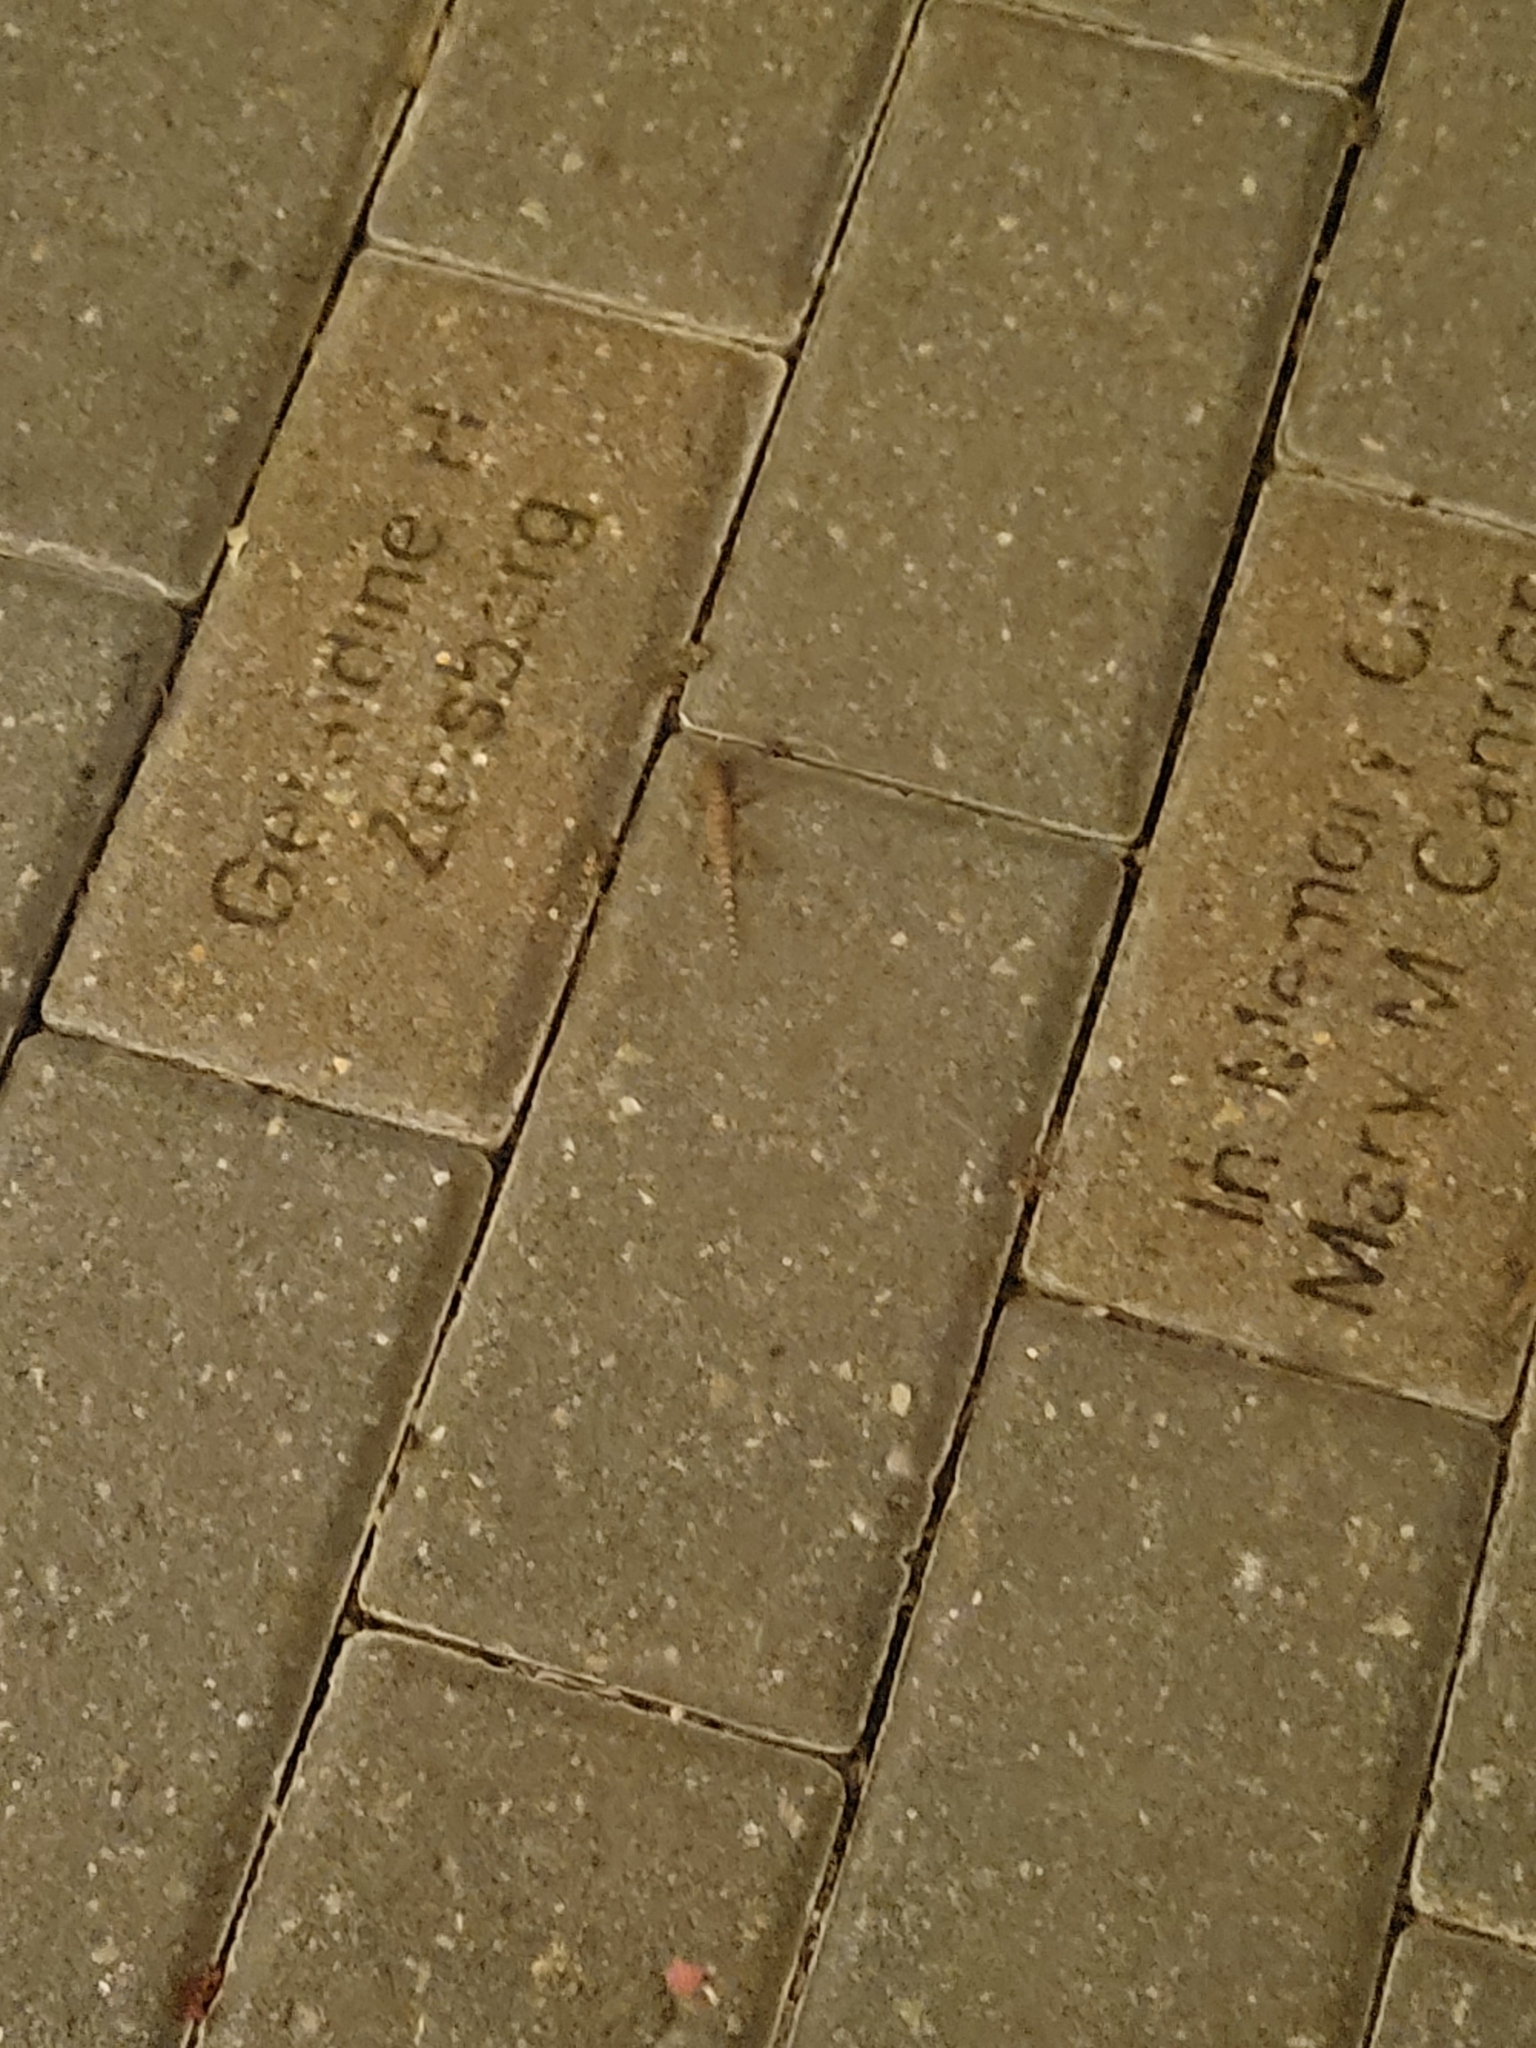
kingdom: Animalia
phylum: Chordata
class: Squamata
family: Gekkonidae
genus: Hemidactylus
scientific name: Hemidactylus turcicus
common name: Turkish gecko
